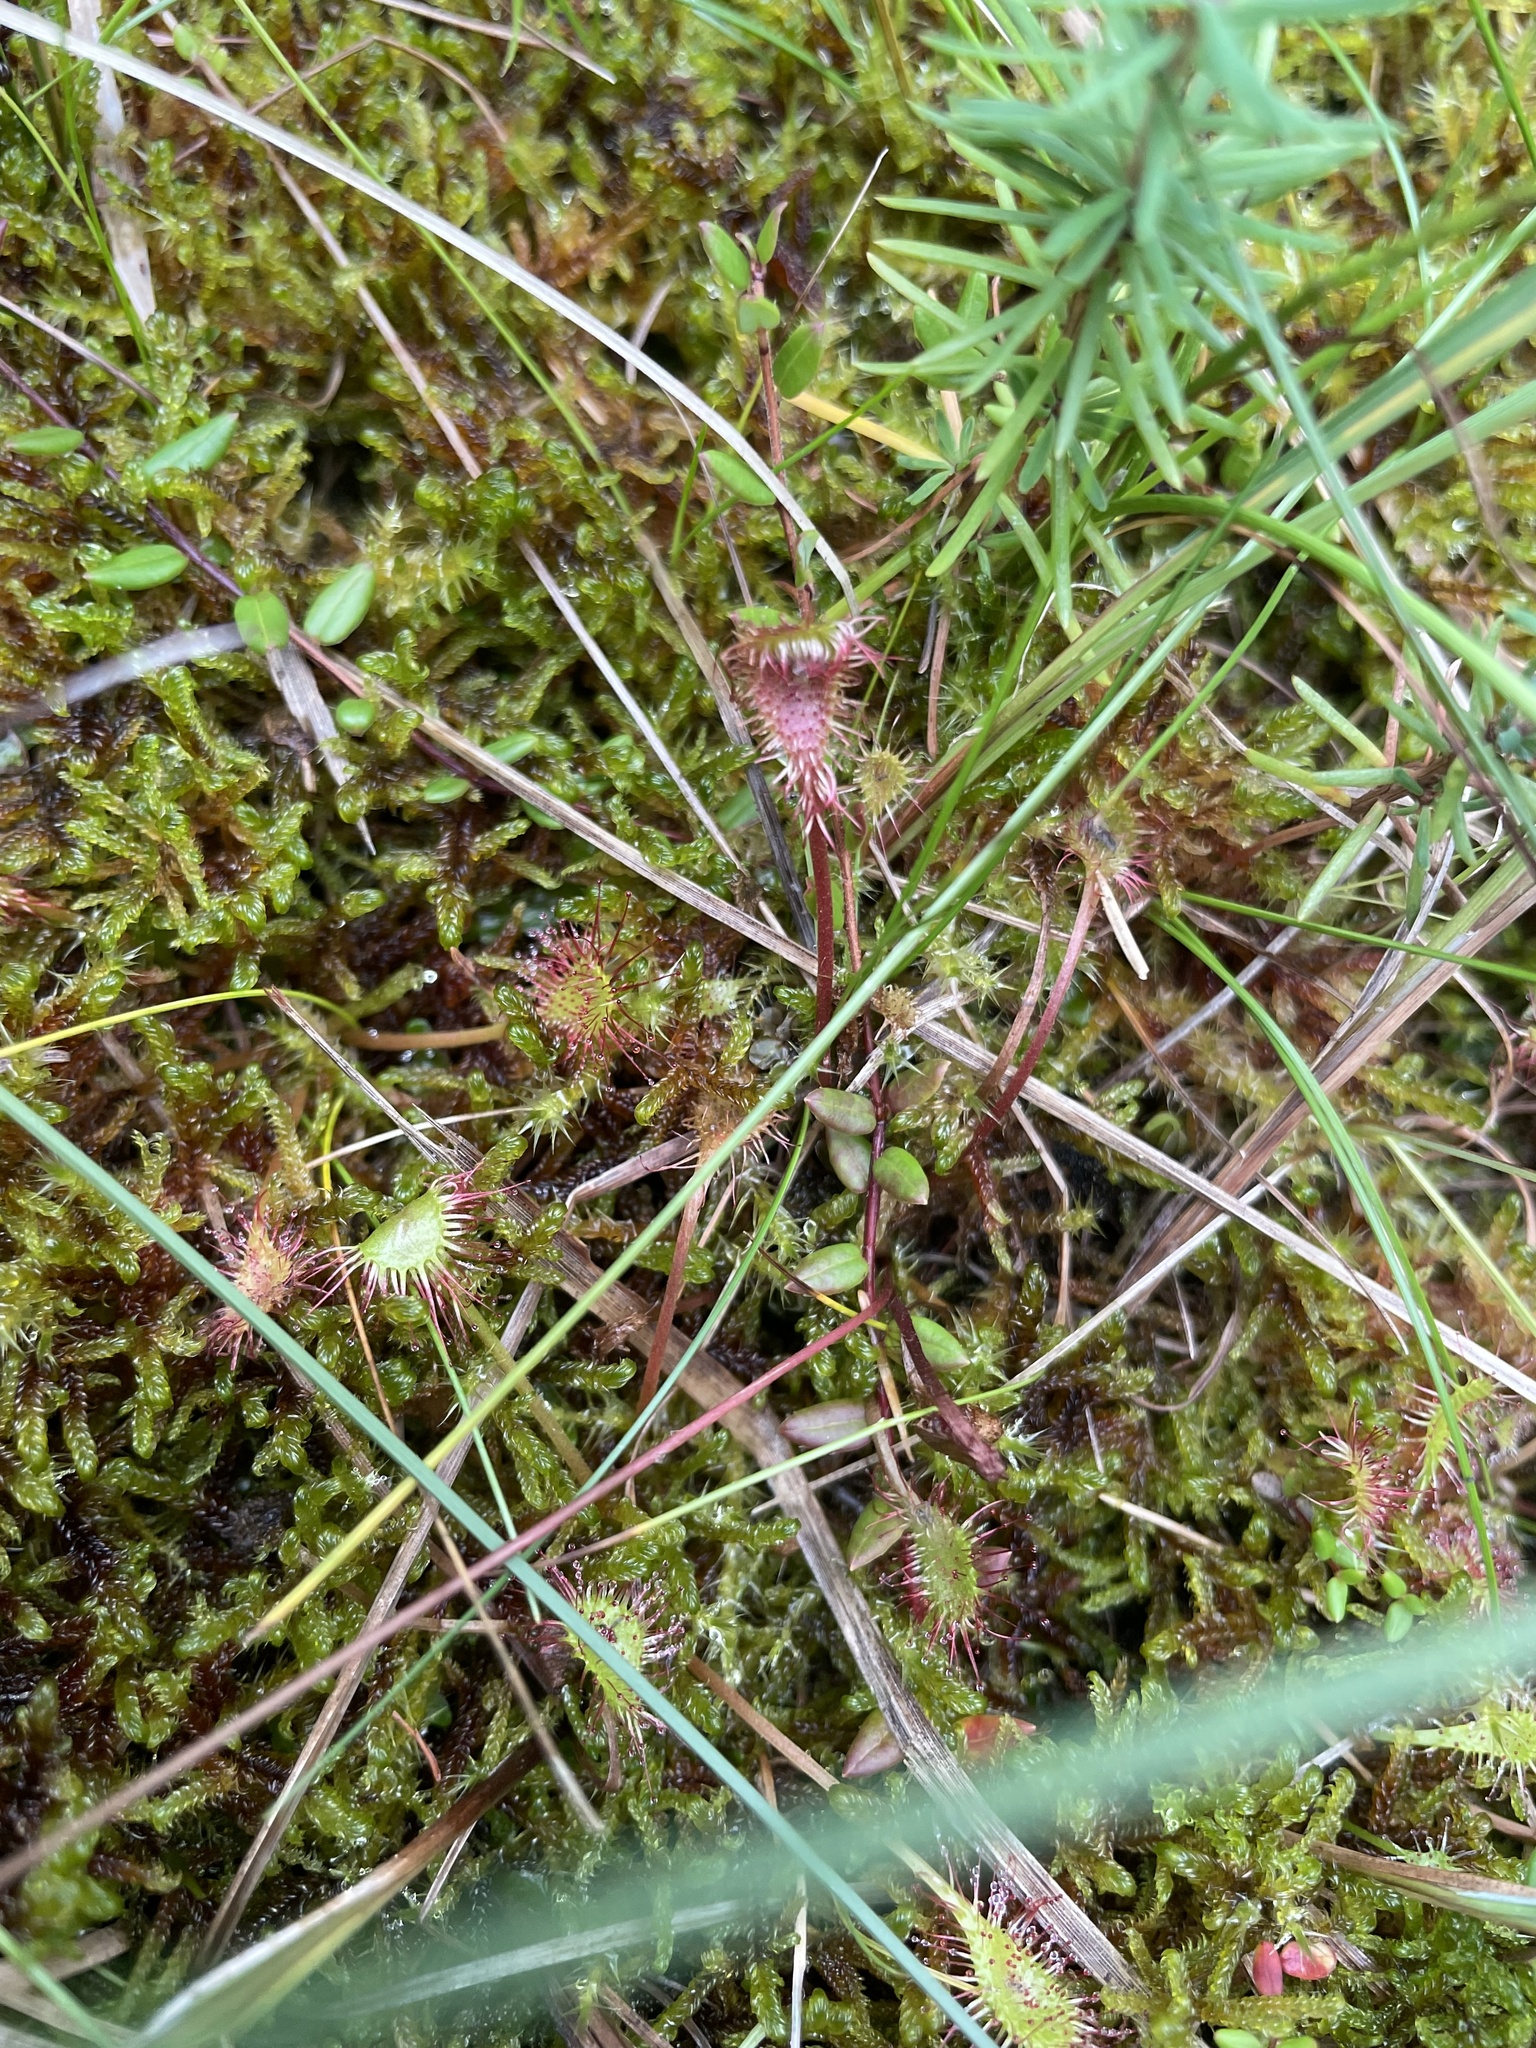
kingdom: Plantae
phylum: Tracheophyta
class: Magnoliopsida
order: Caryophyllales
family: Droseraceae
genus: Drosera
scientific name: Drosera anglica
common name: Great sundew
